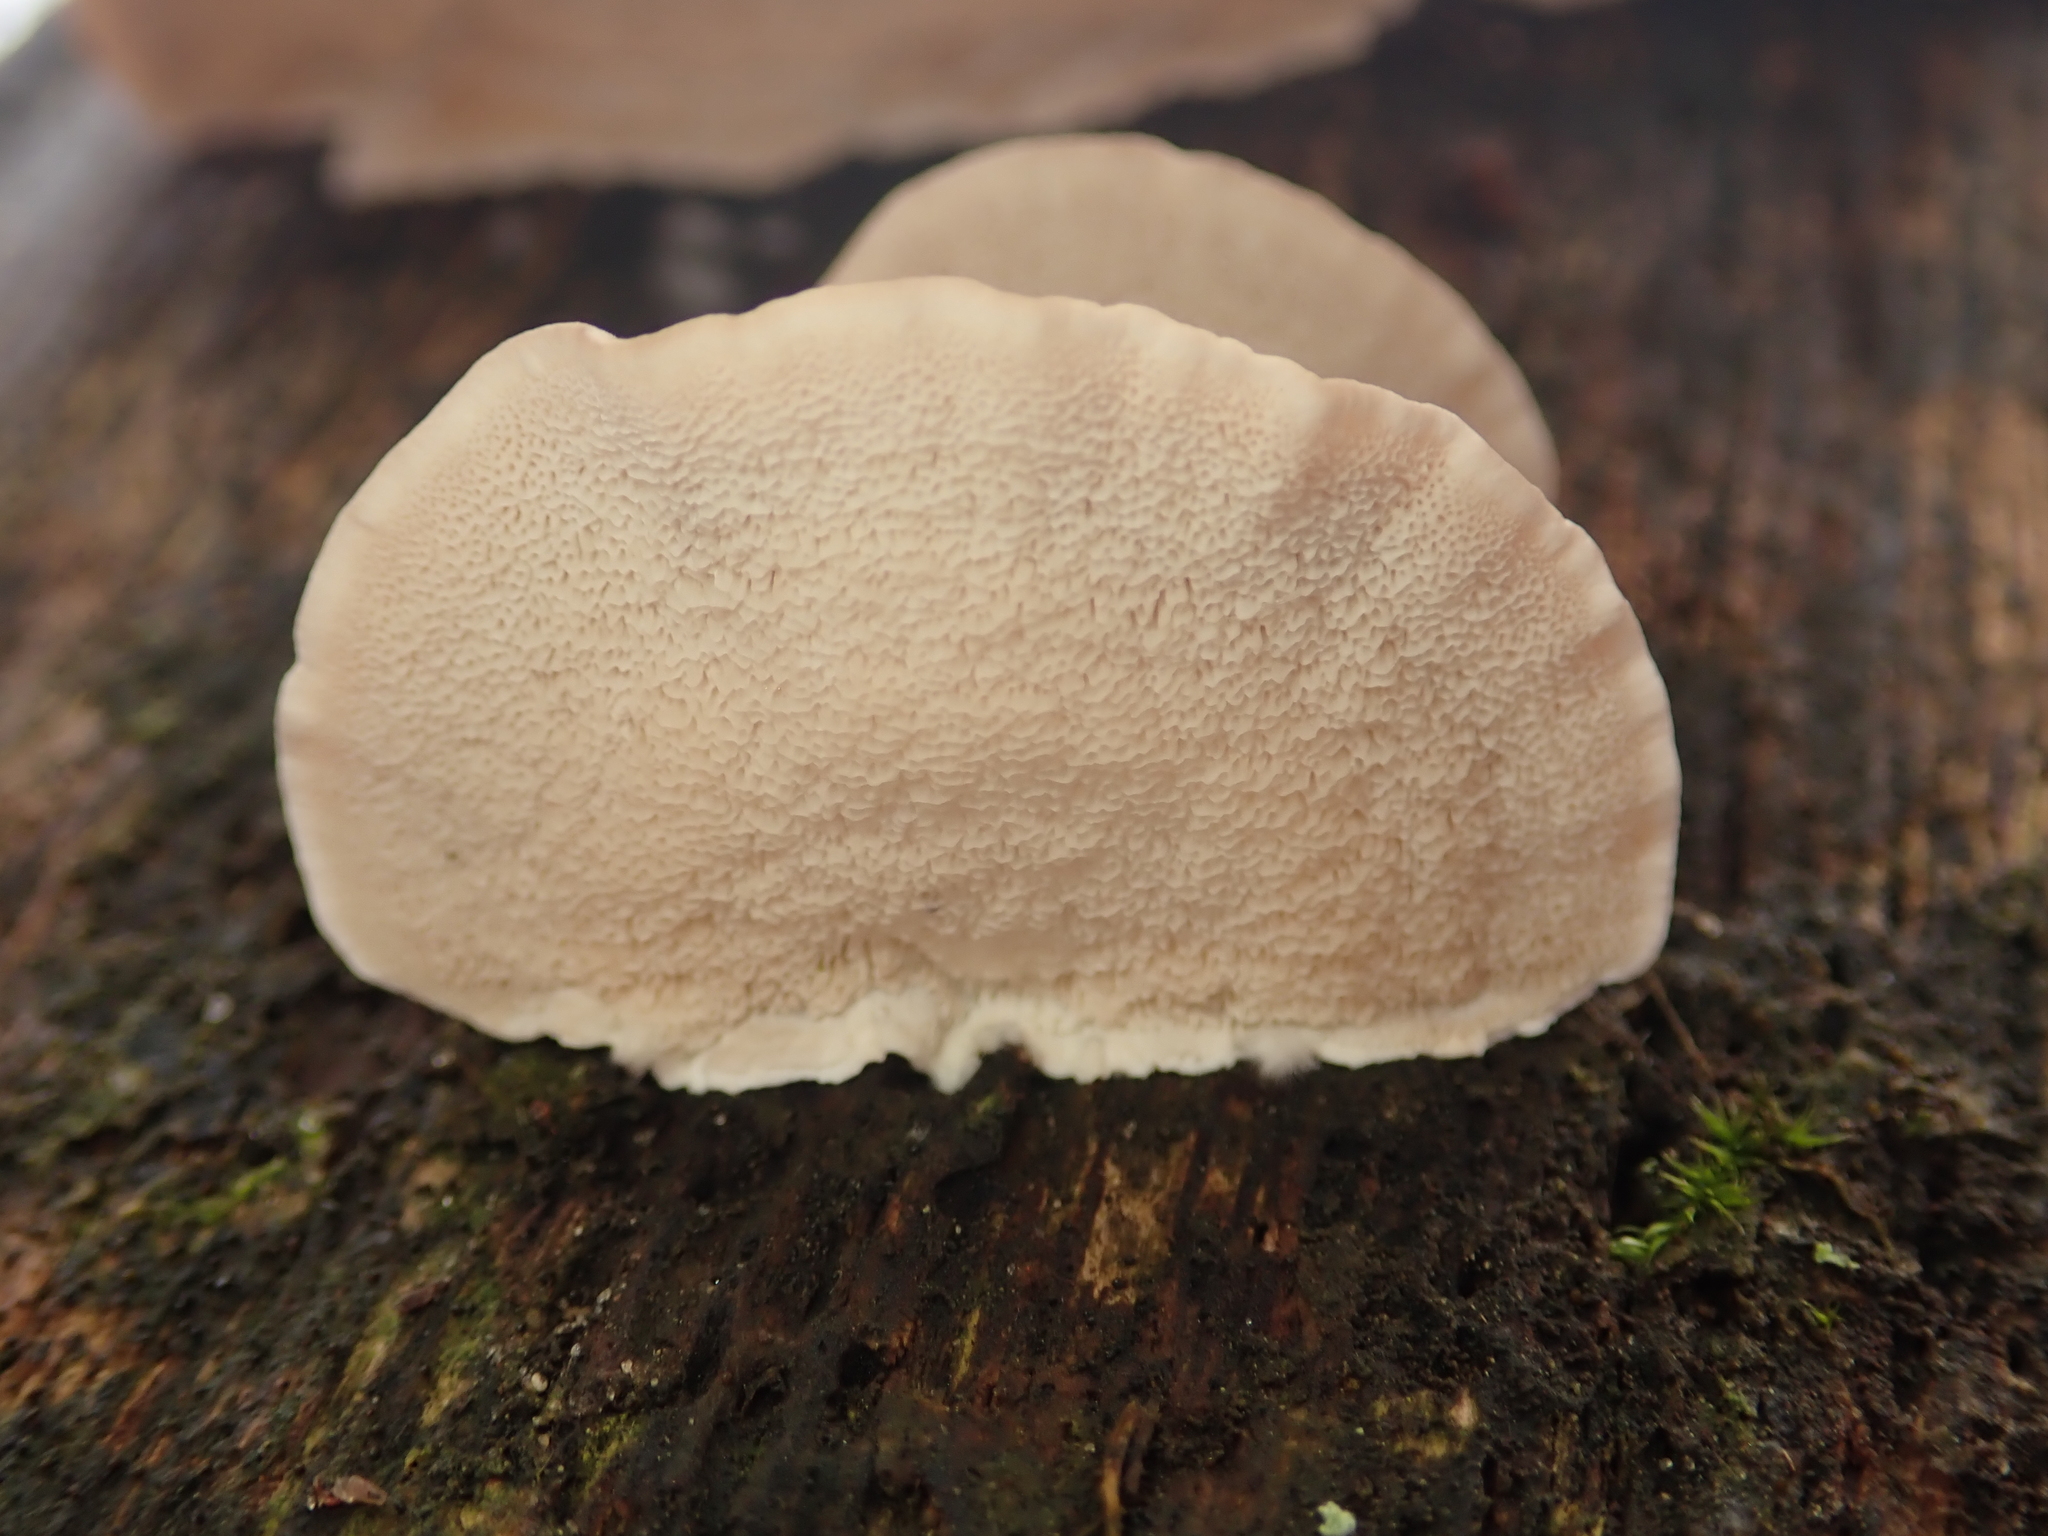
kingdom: Fungi
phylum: Basidiomycota
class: Agaricomycetes
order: Polyporales
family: Polyporaceae
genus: Trametes
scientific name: Trametes versicolor
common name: Turkeytail
